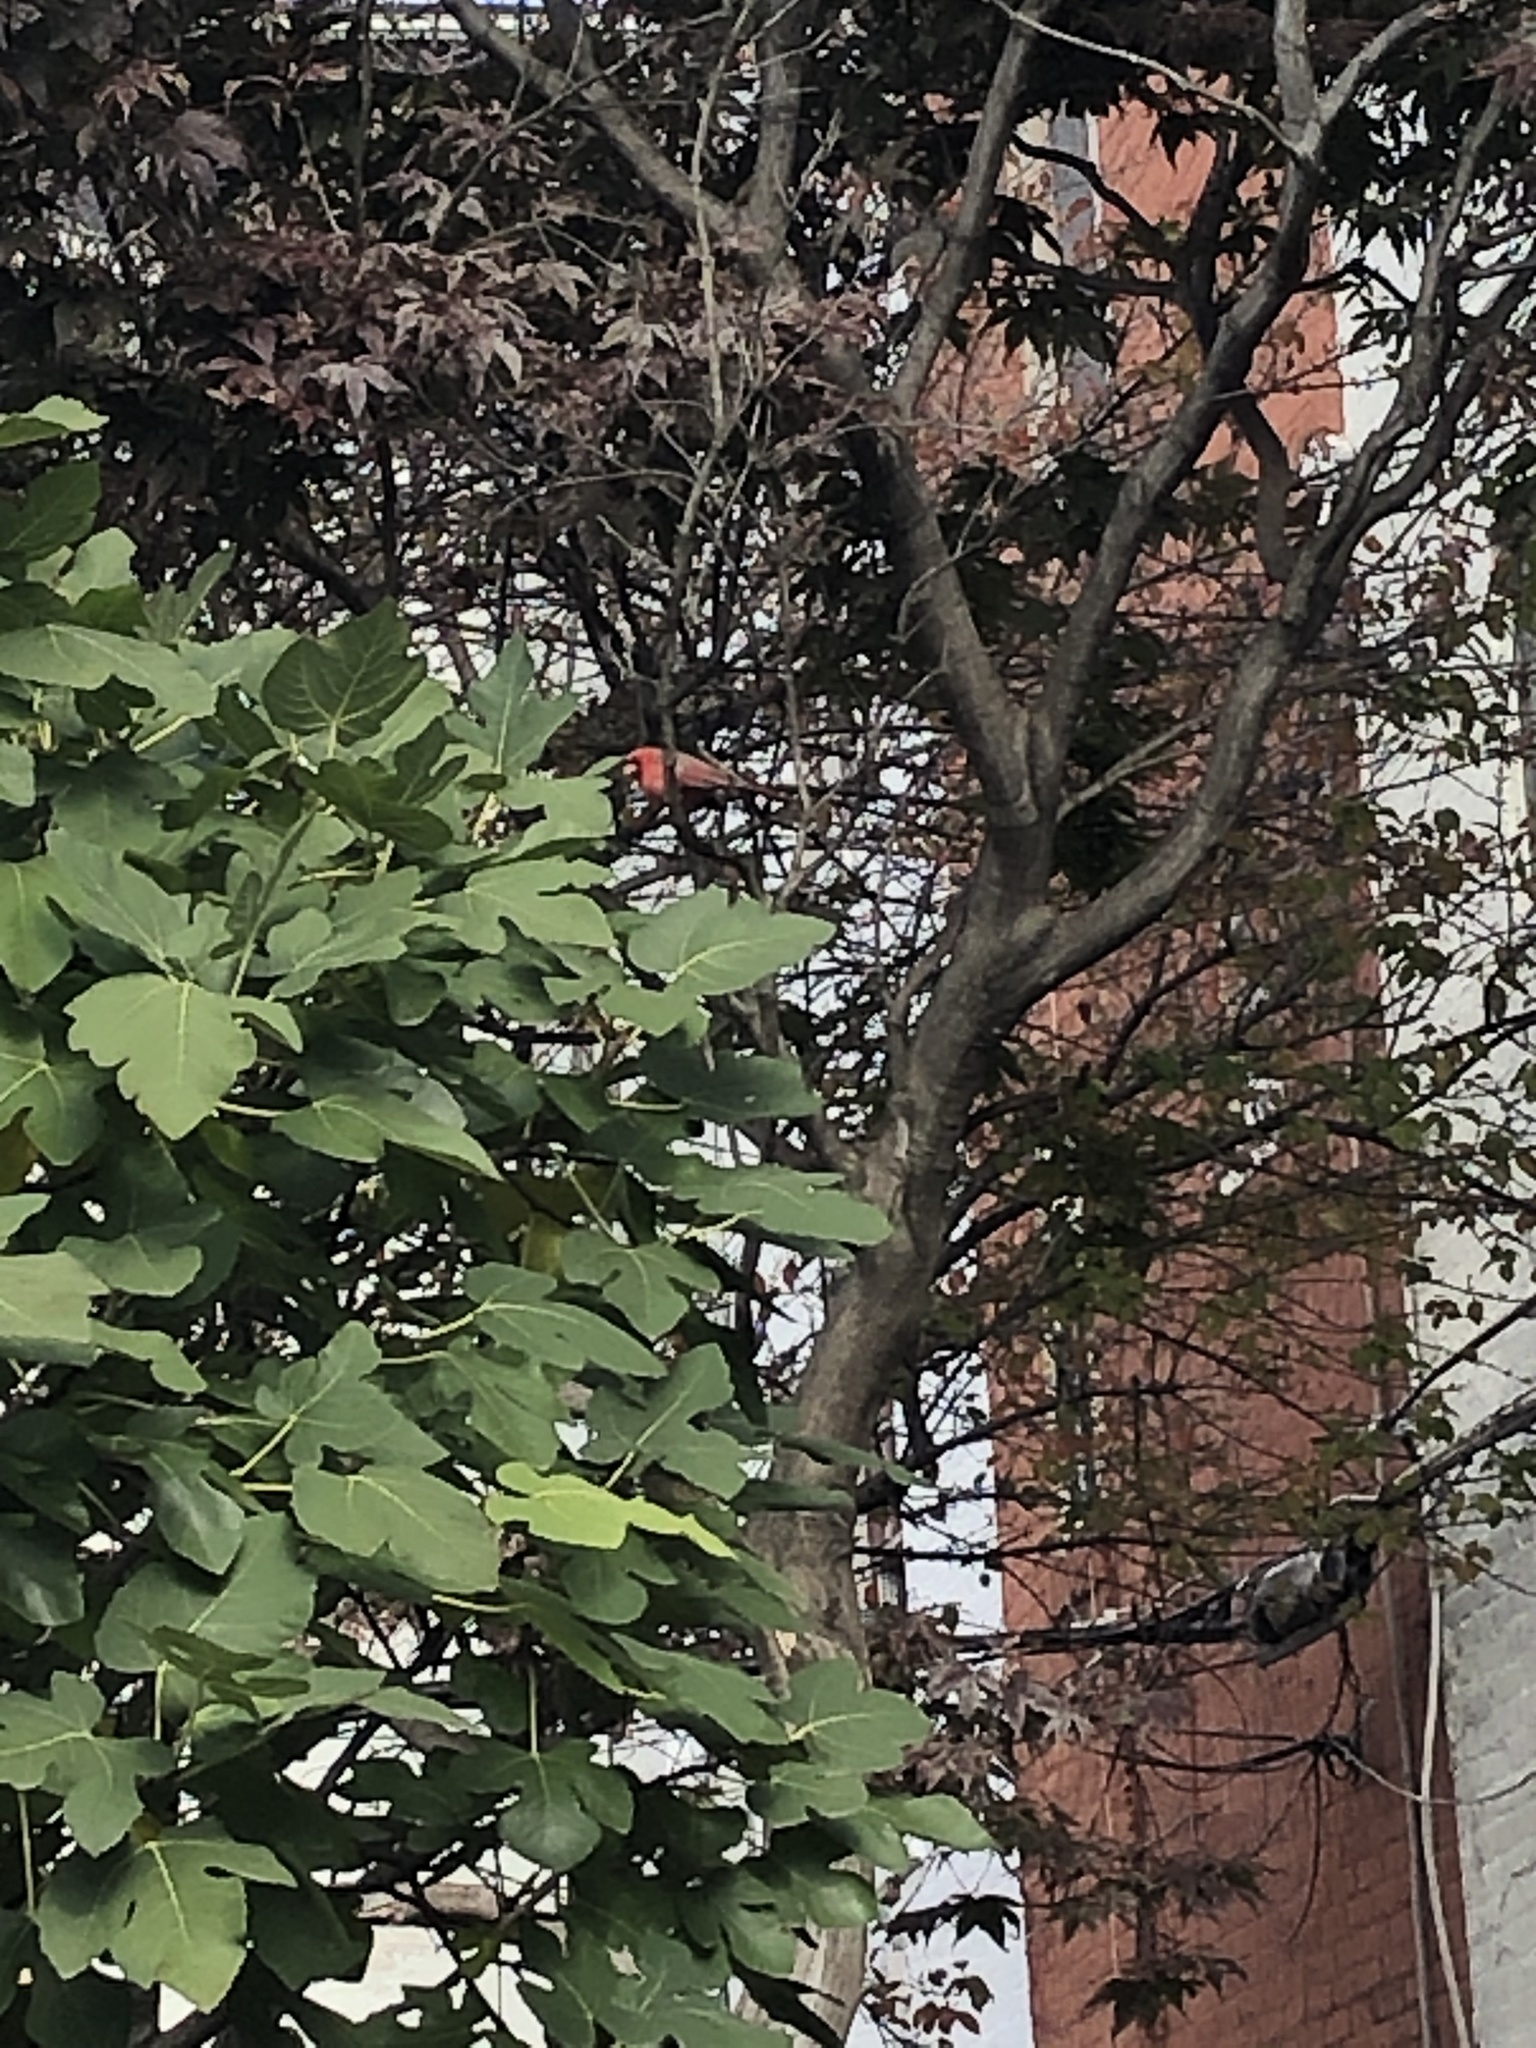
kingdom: Animalia
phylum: Chordata
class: Aves
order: Passeriformes
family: Cardinalidae
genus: Cardinalis
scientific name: Cardinalis cardinalis
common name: Northern cardinal
